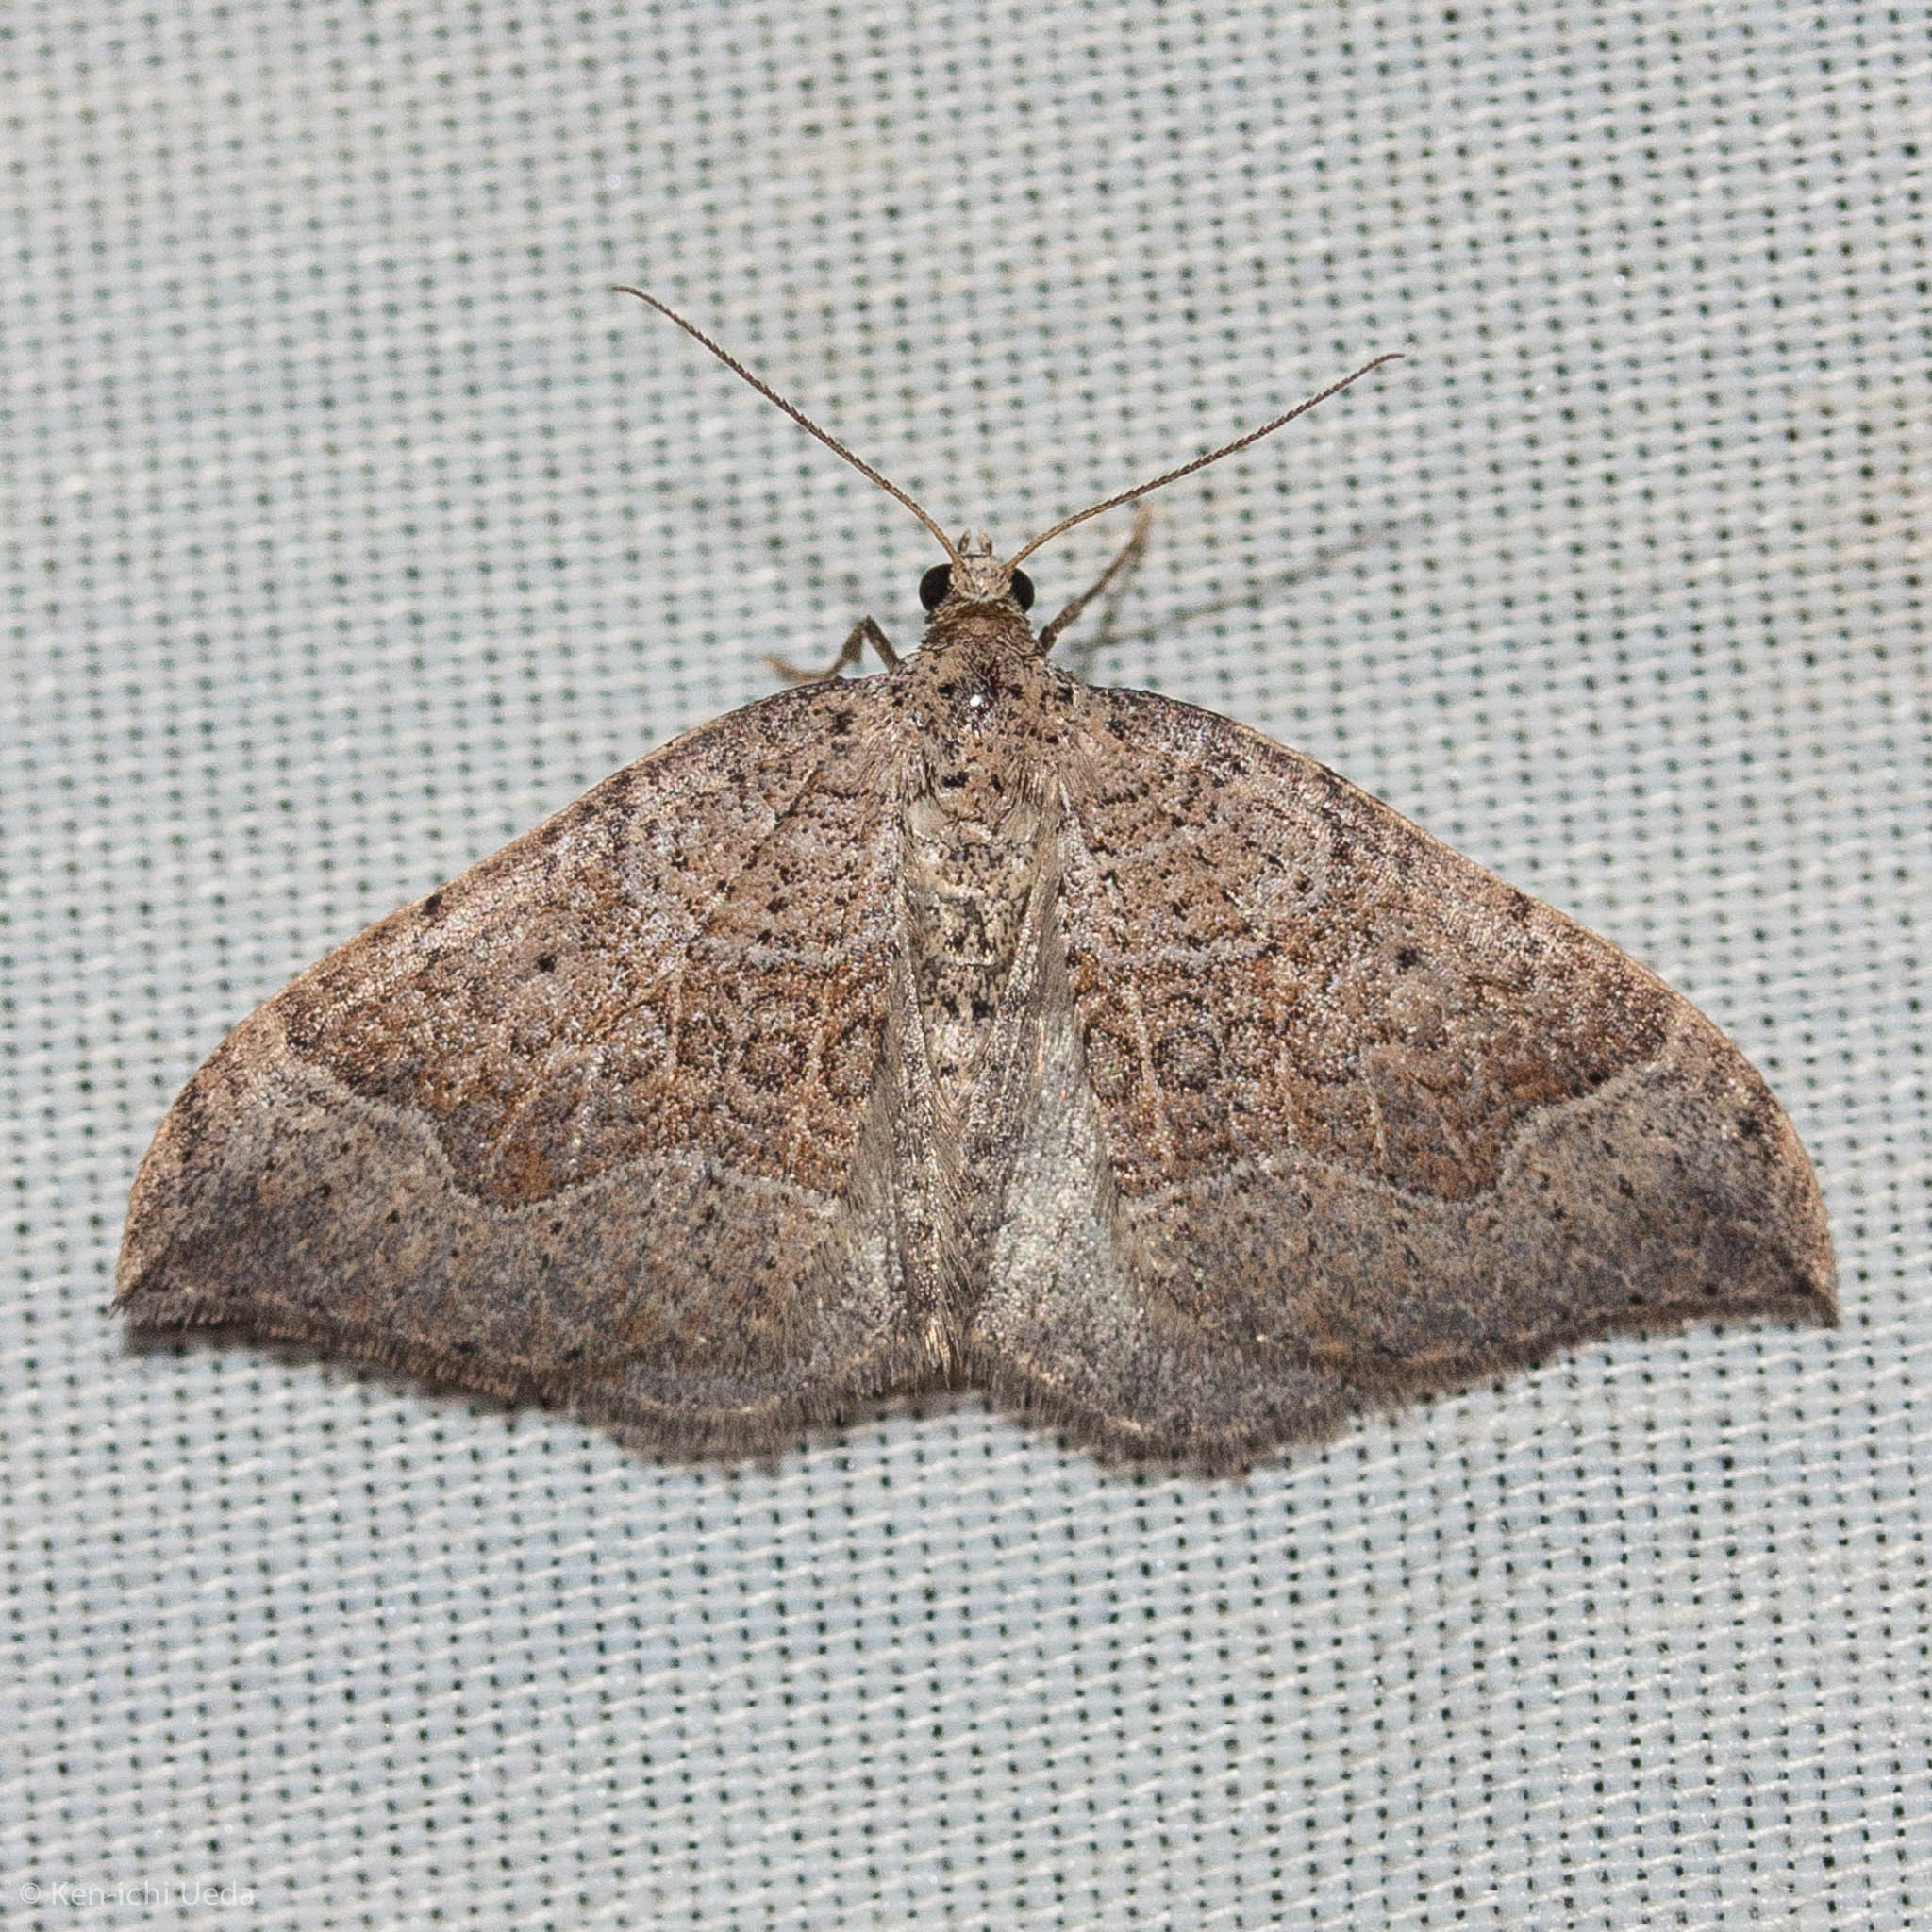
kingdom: Animalia
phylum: Arthropoda
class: Insecta
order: Lepidoptera
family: Geometridae
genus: Zenophleps
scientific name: Zenophleps lignicolorata
